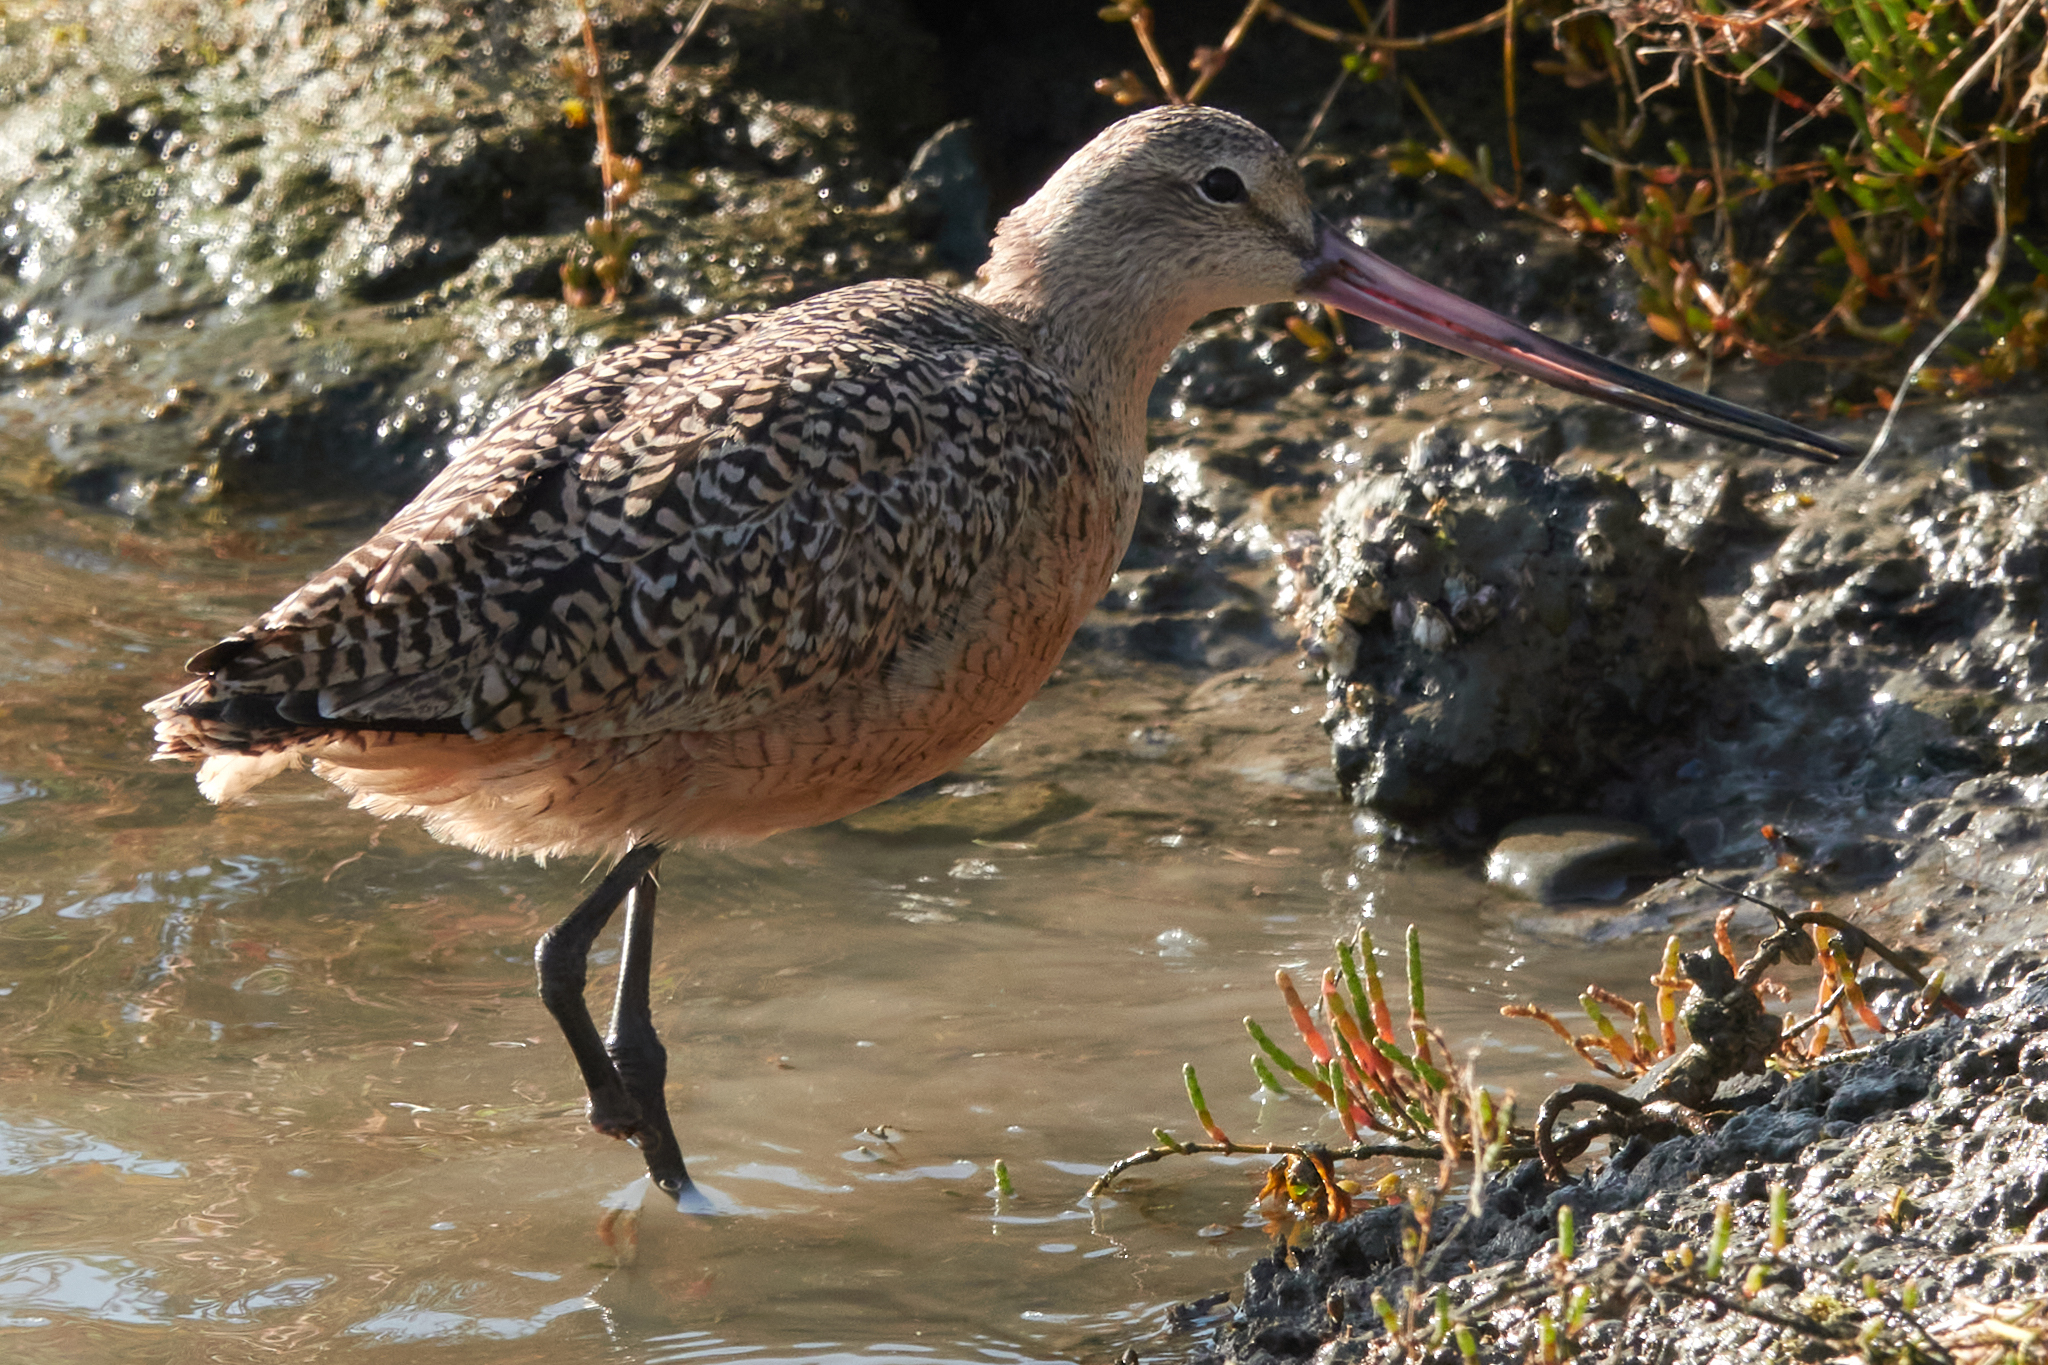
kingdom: Animalia
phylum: Chordata
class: Aves
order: Charadriiformes
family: Scolopacidae
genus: Limosa
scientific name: Limosa fedoa
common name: Marbled godwit
